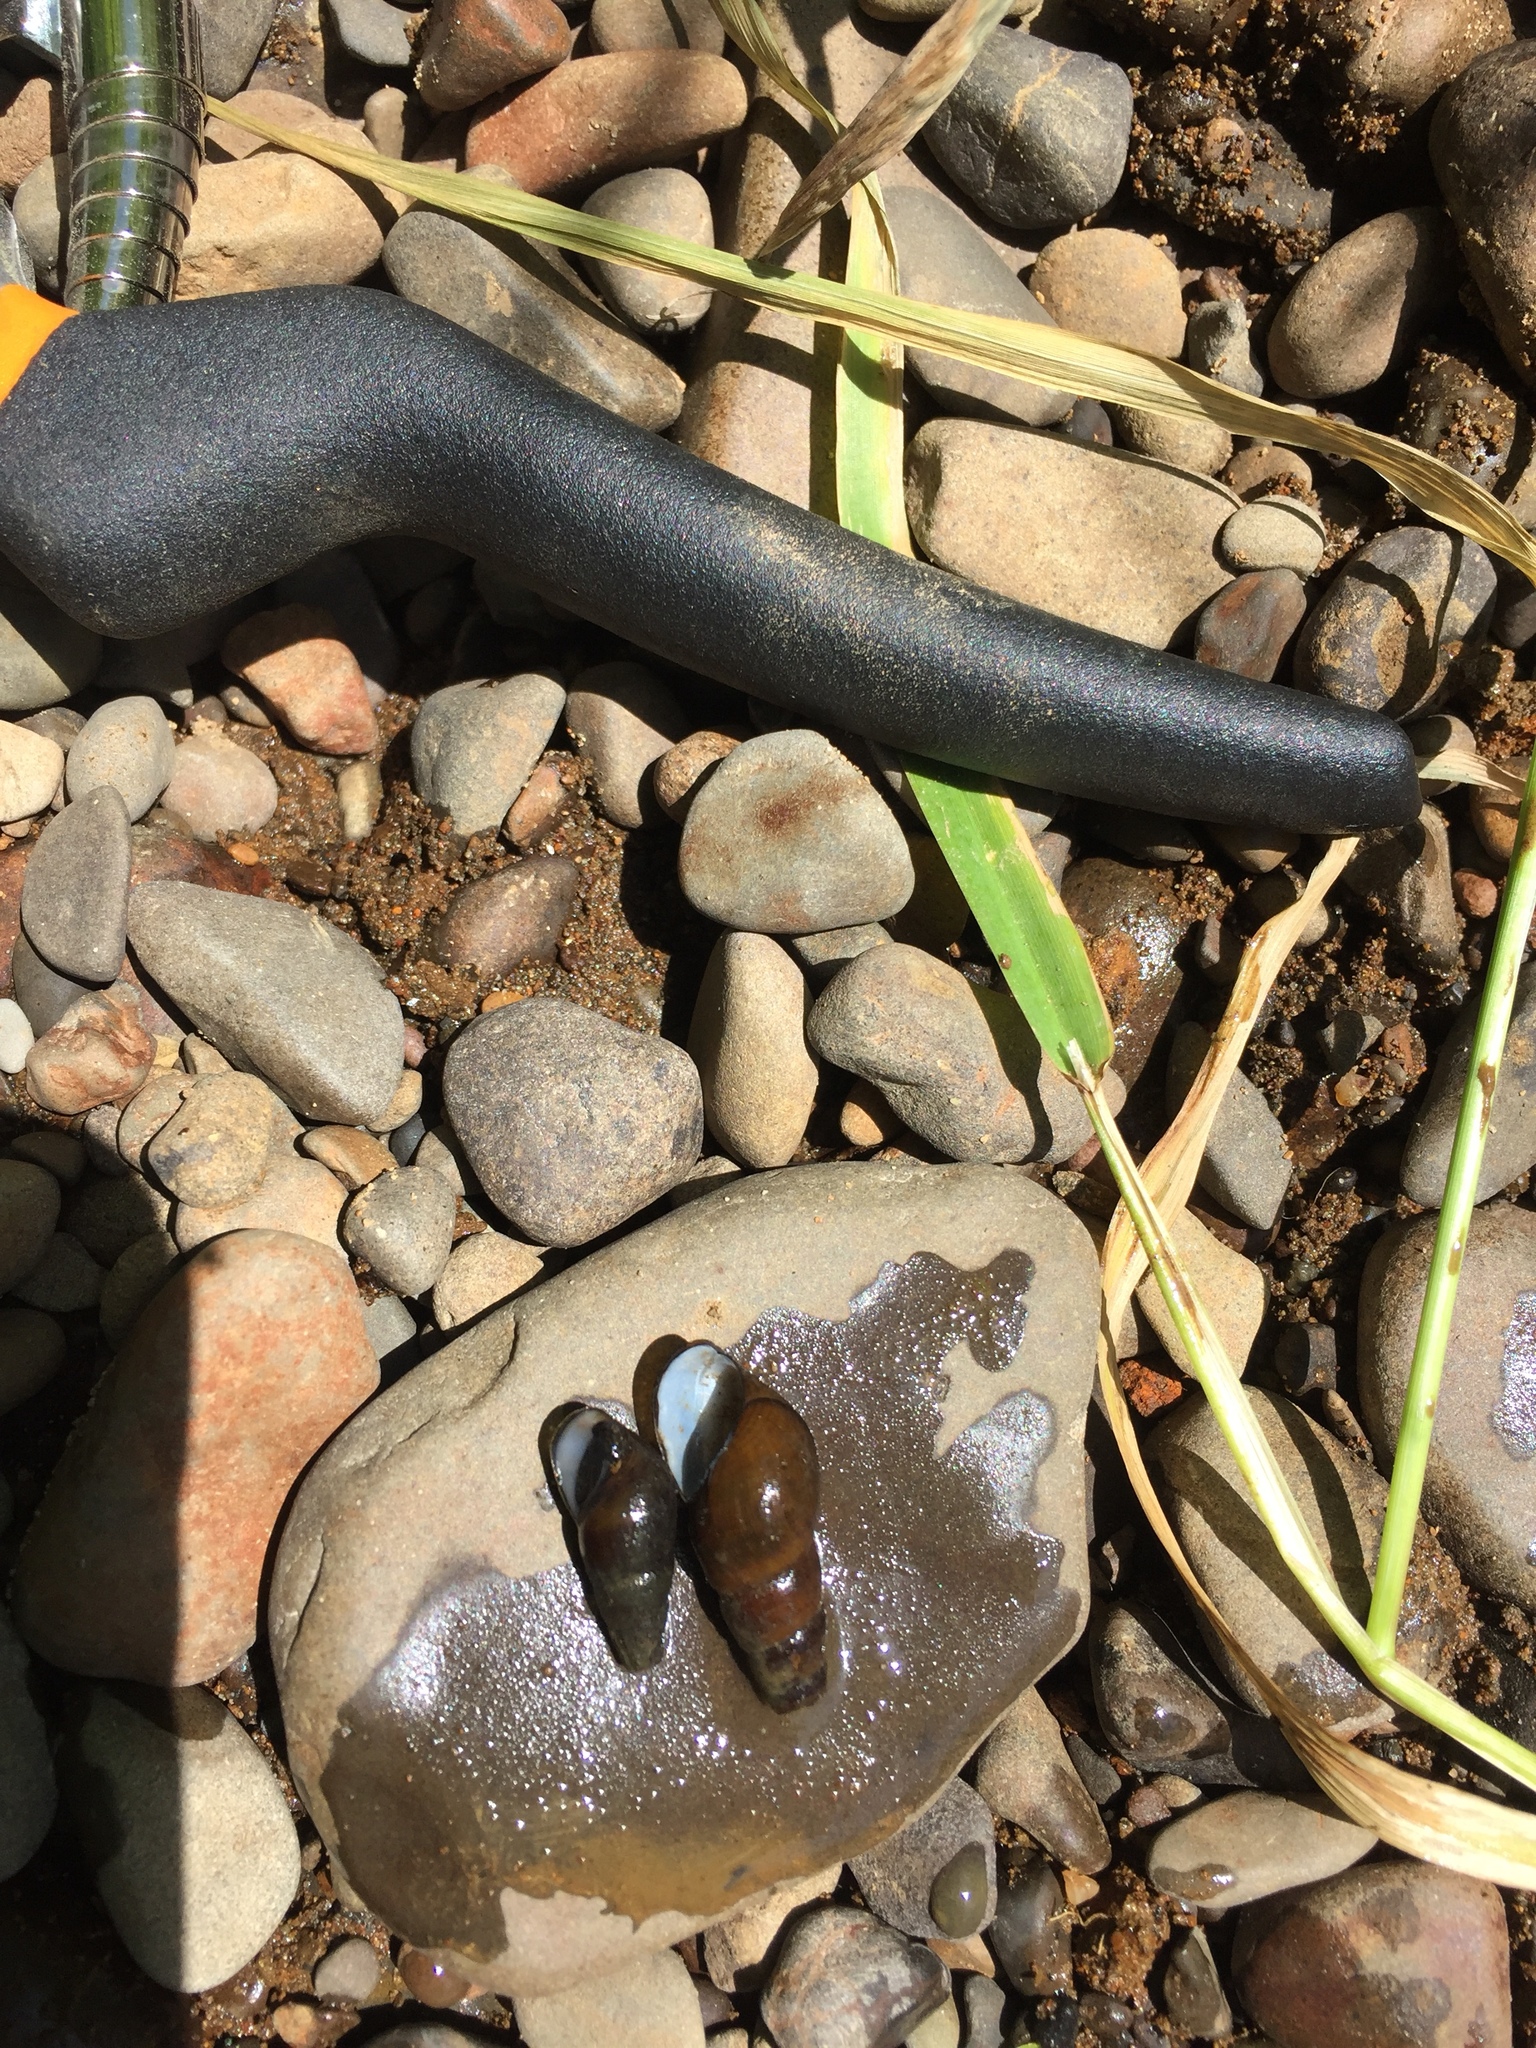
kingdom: Animalia
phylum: Mollusca
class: Gastropoda
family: Semisulcospiridae
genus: Juga
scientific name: Juga plicifera
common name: Pleated juga
